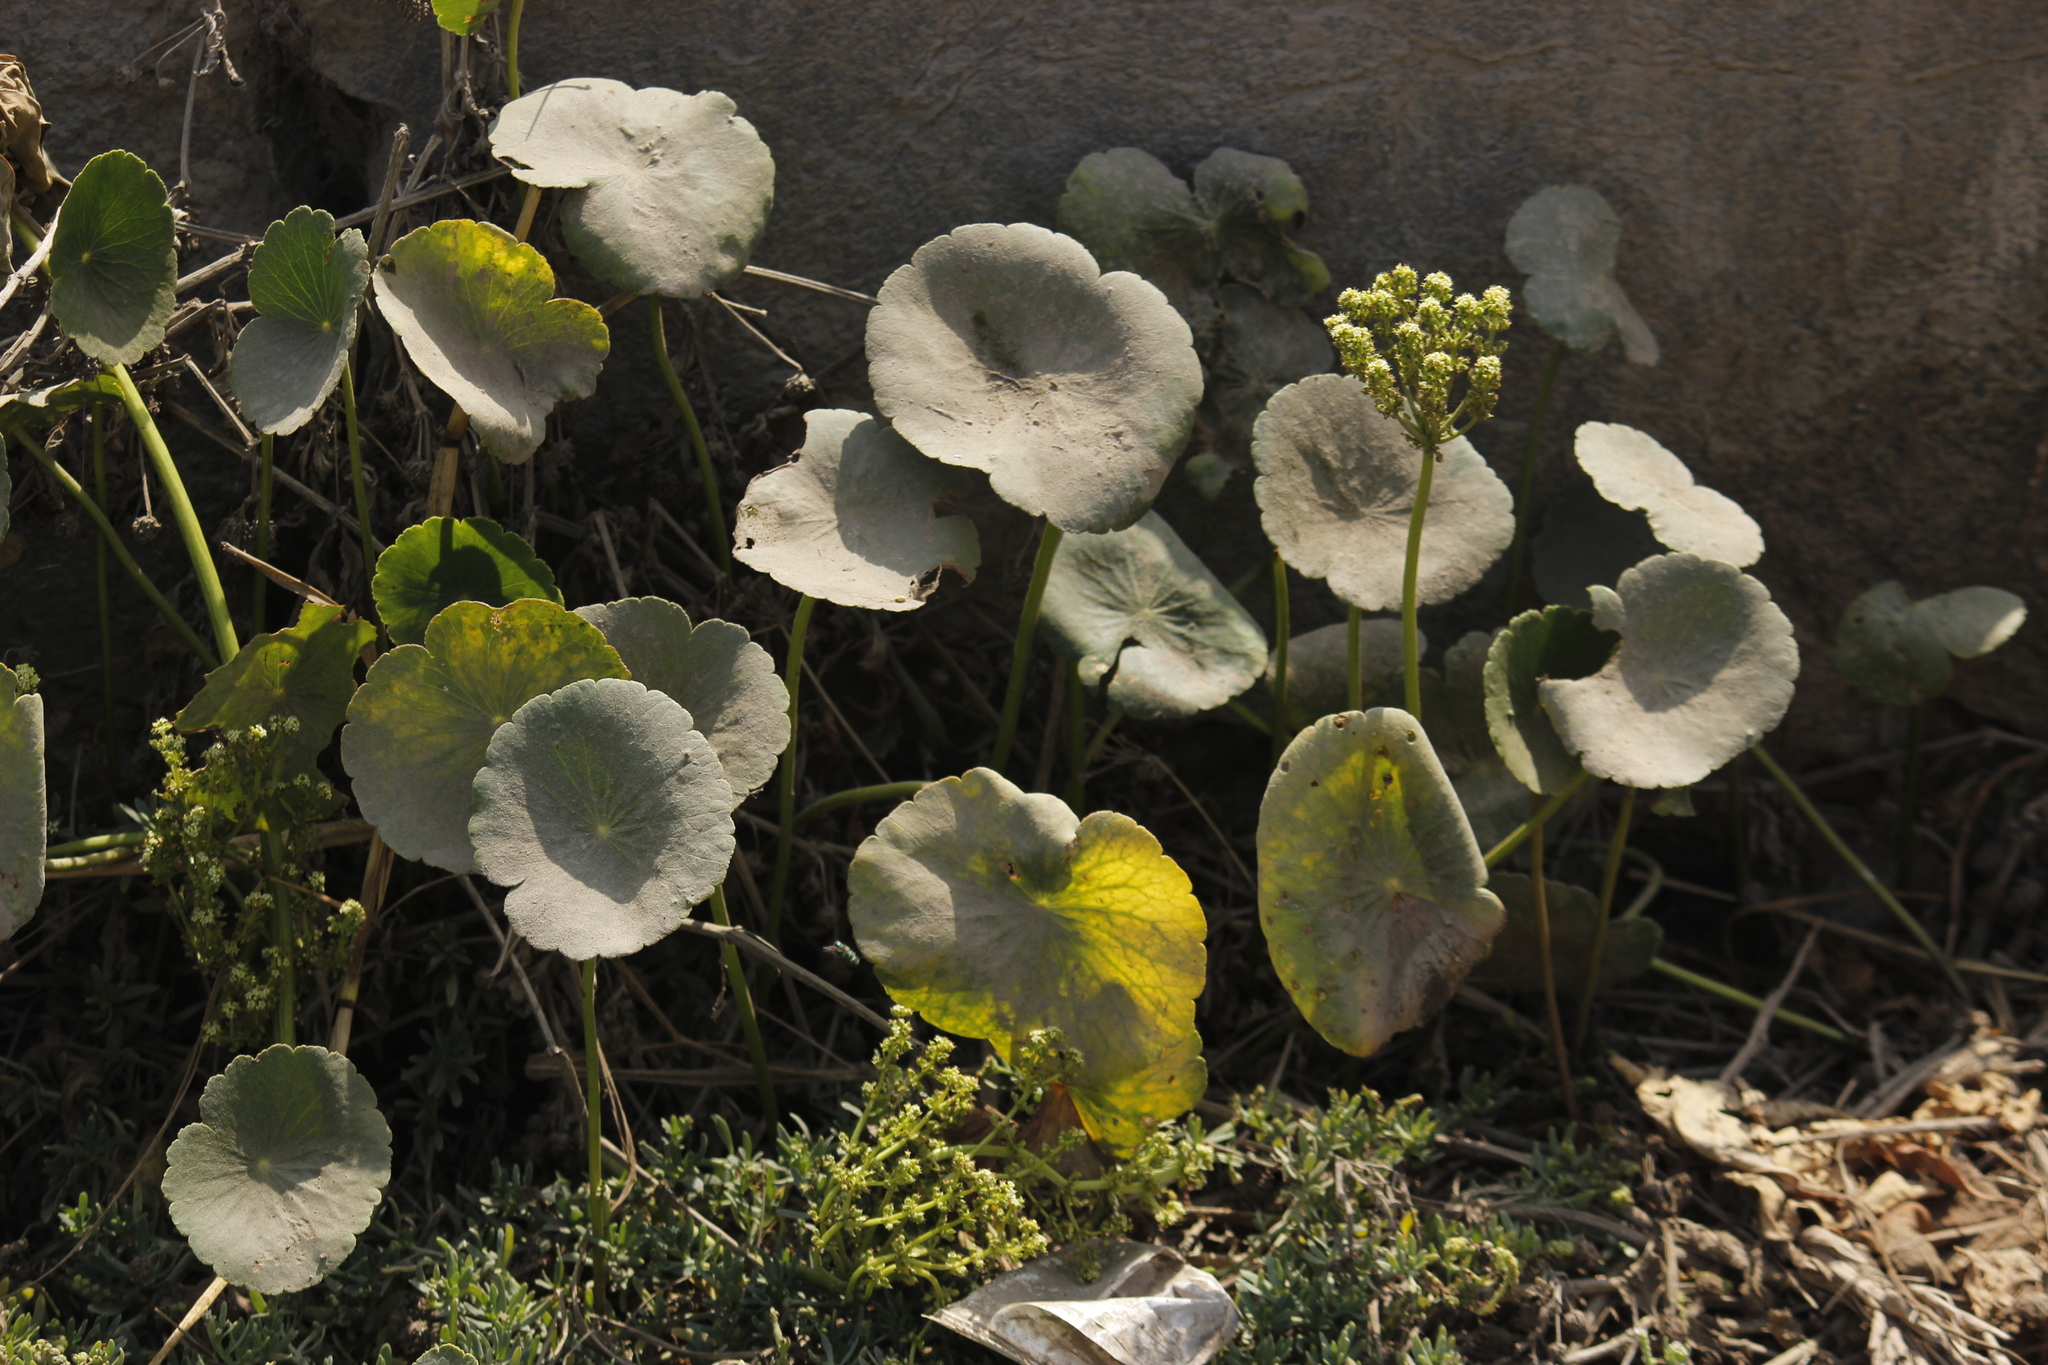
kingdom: Plantae
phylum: Tracheophyta
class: Magnoliopsida
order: Apiales
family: Araliaceae
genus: Hydrocotyle
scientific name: Hydrocotyle bonariensis
